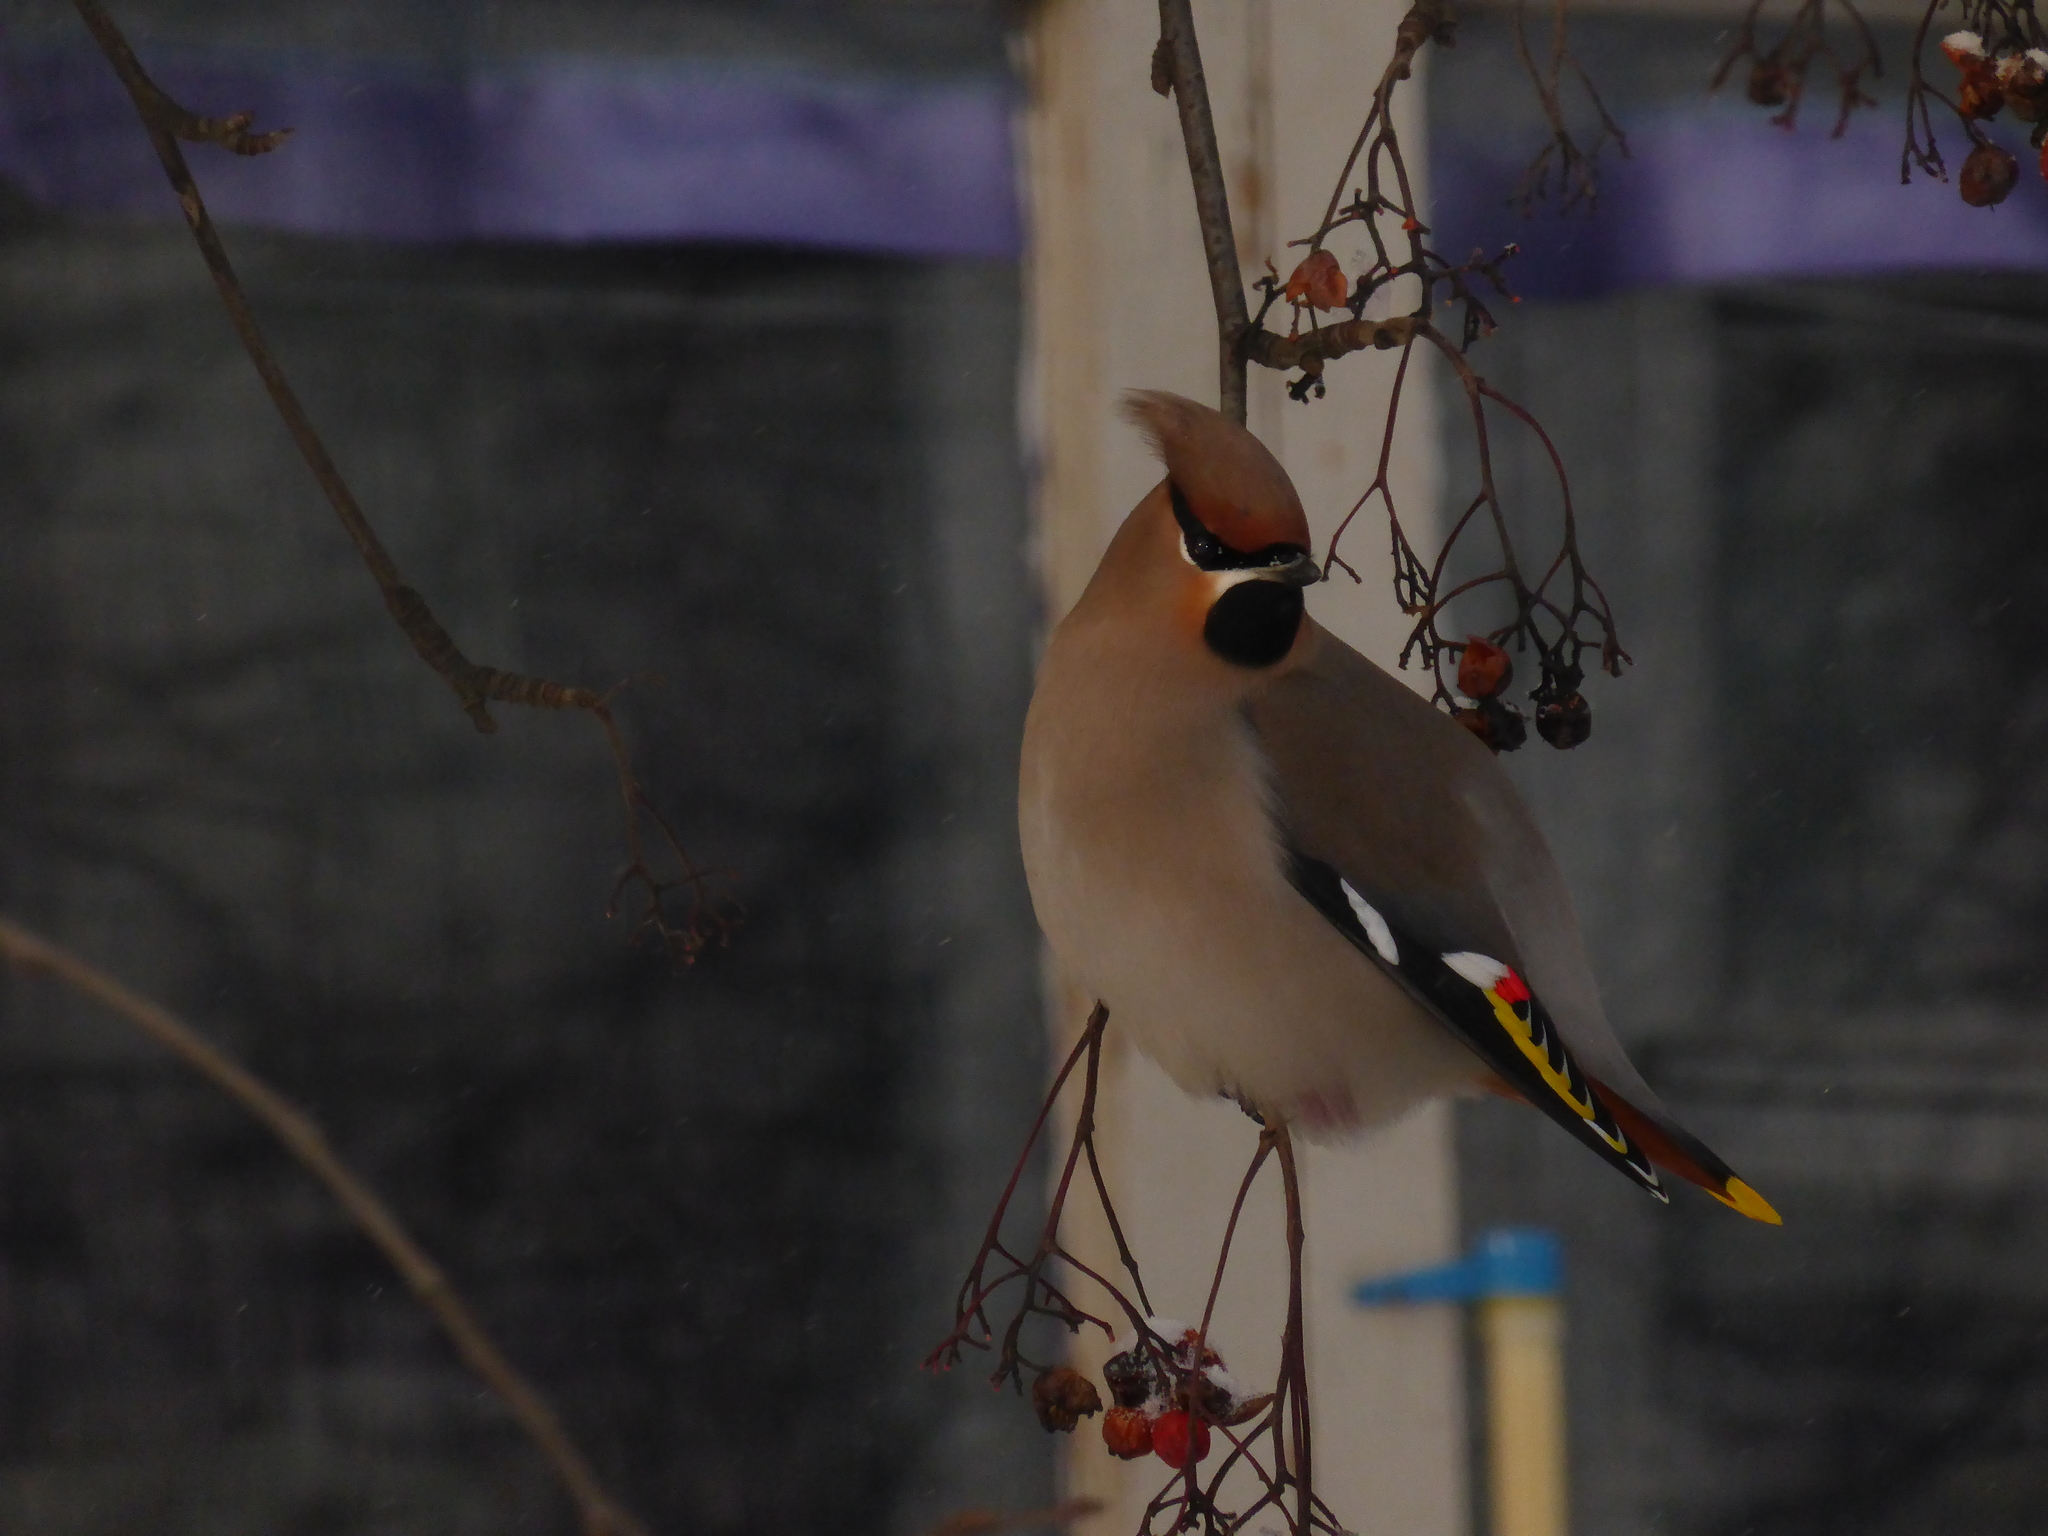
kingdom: Animalia
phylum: Chordata
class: Aves
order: Passeriformes
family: Bombycillidae
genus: Bombycilla
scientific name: Bombycilla garrulus
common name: Bohemian waxwing
